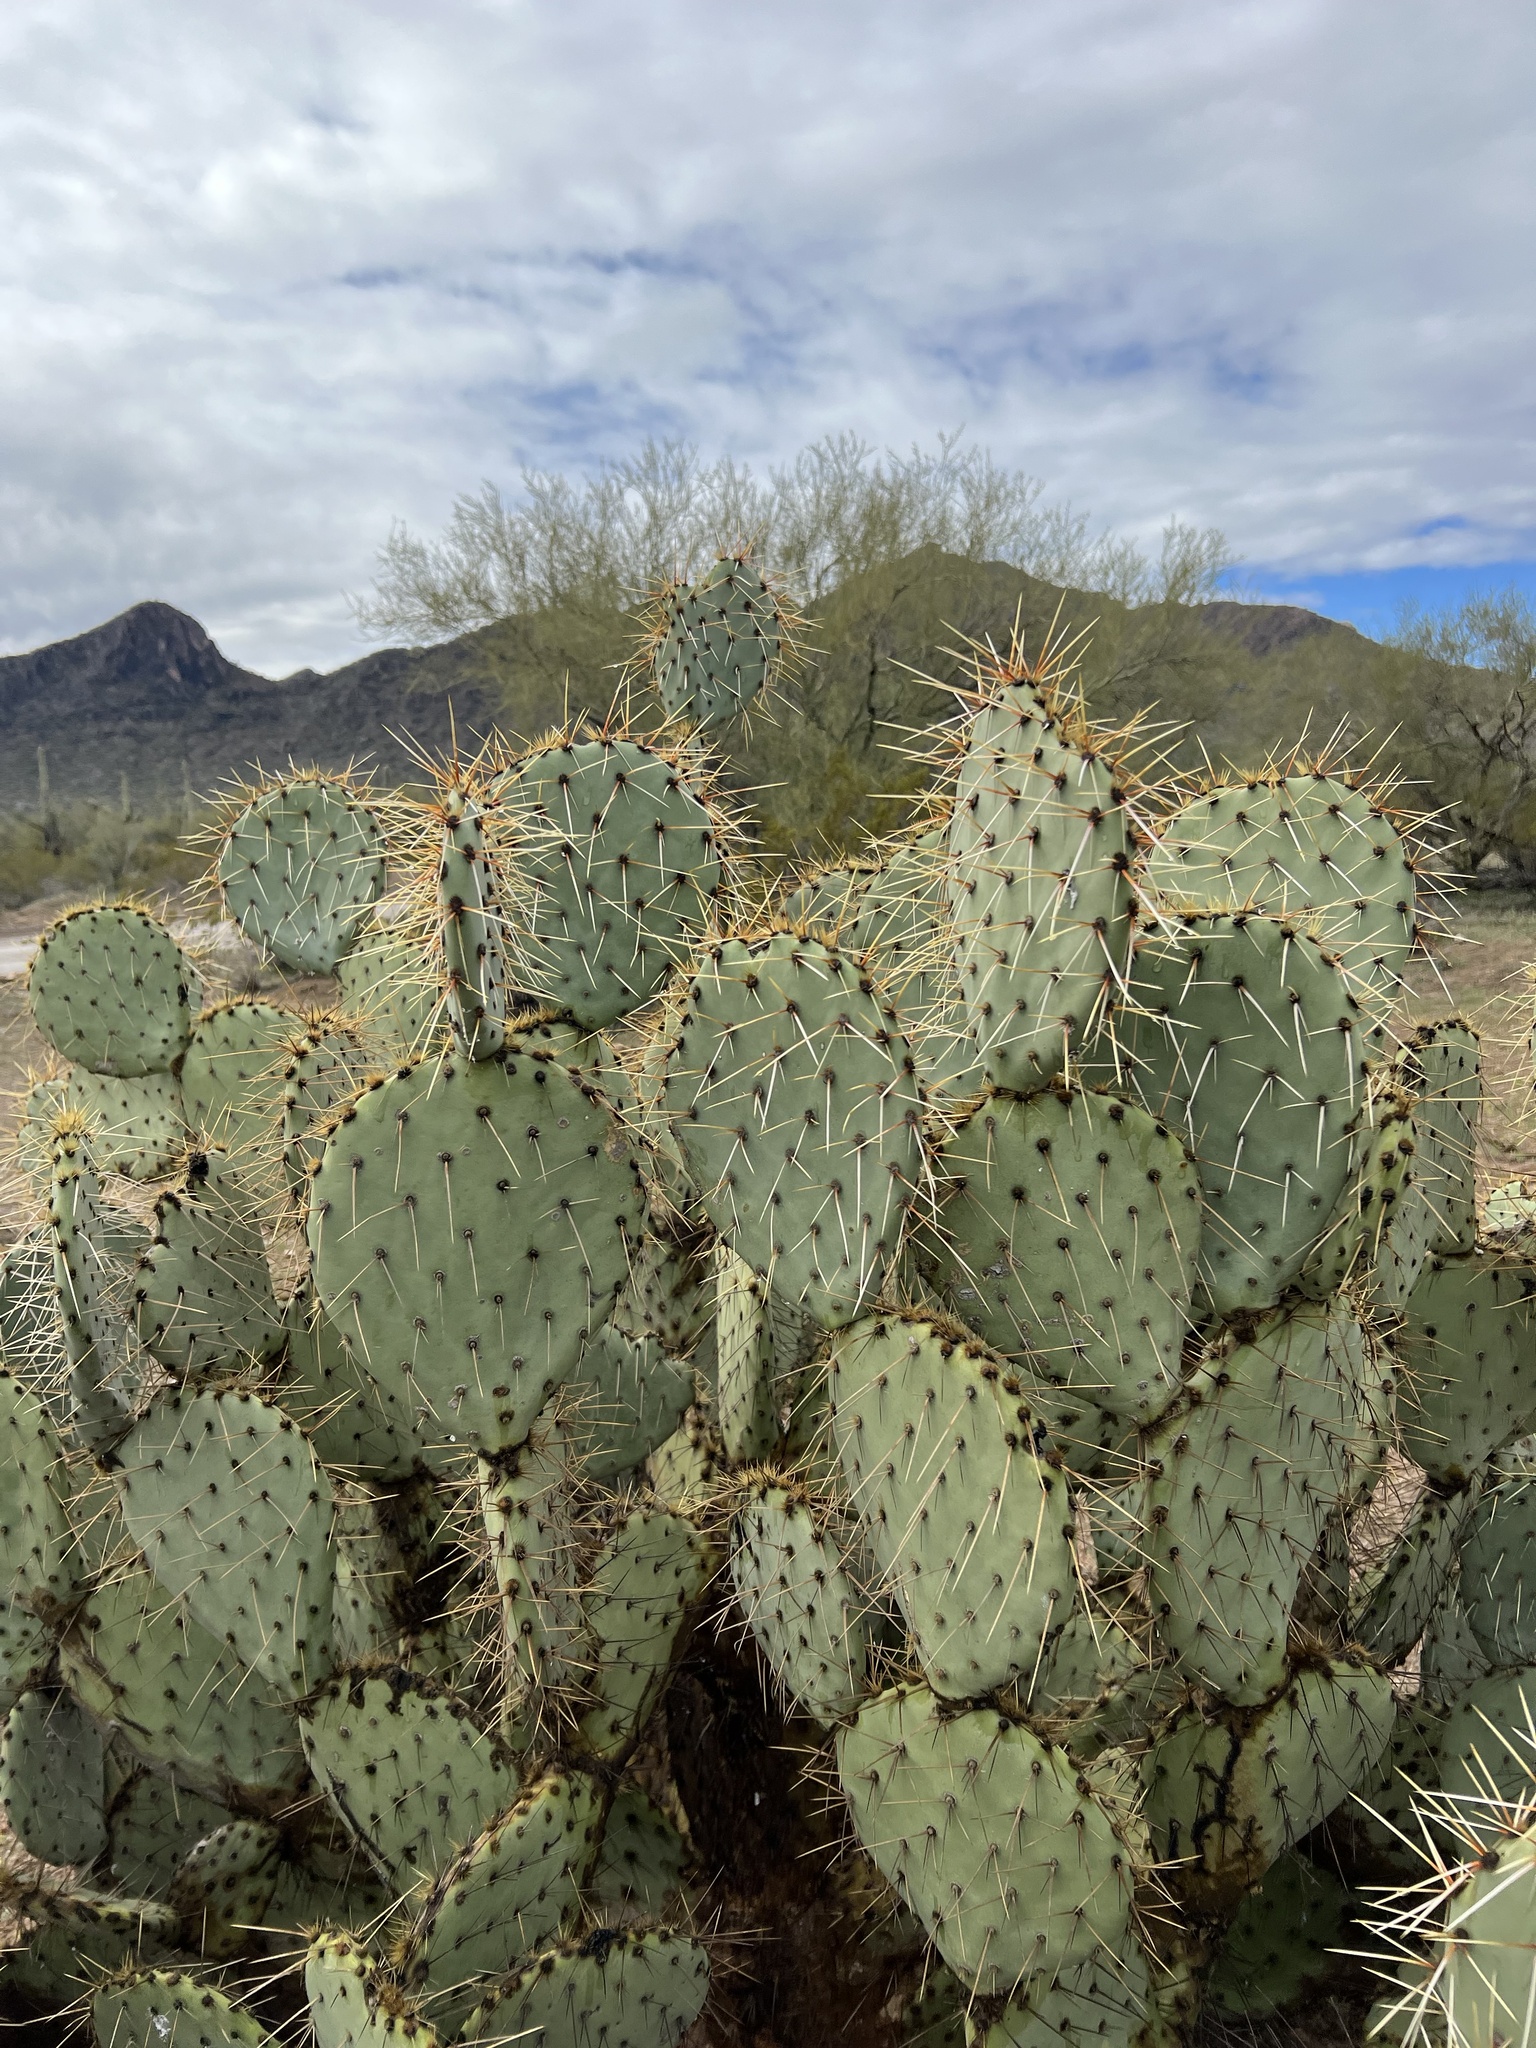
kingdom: Plantae
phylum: Tracheophyta
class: Magnoliopsida
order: Caryophyllales
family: Cactaceae
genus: Opuntia
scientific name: Opuntia engelmannii
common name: Cactus-apple
